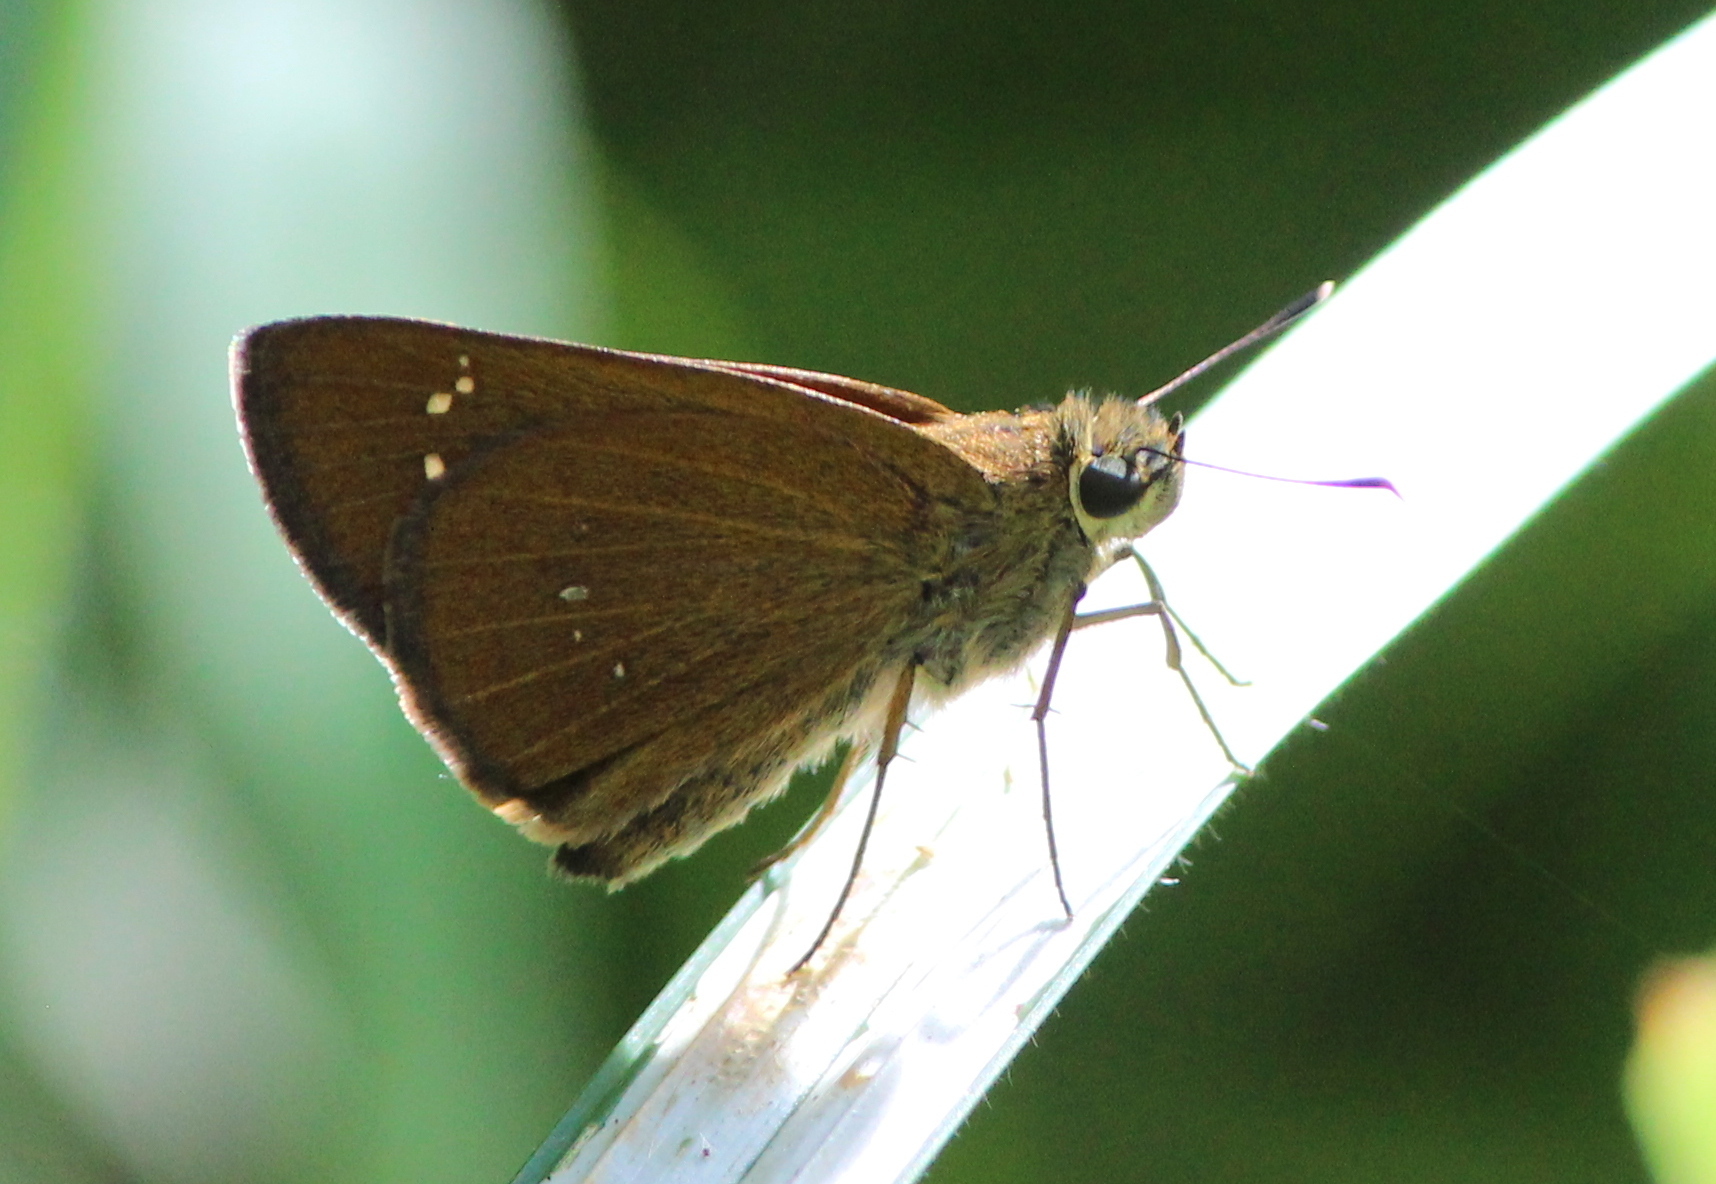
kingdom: Animalia
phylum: Arthropoda
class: Insecta
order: Lepidoptera
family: Hesperiidae
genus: Polytremis
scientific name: Polytremis lubricans
